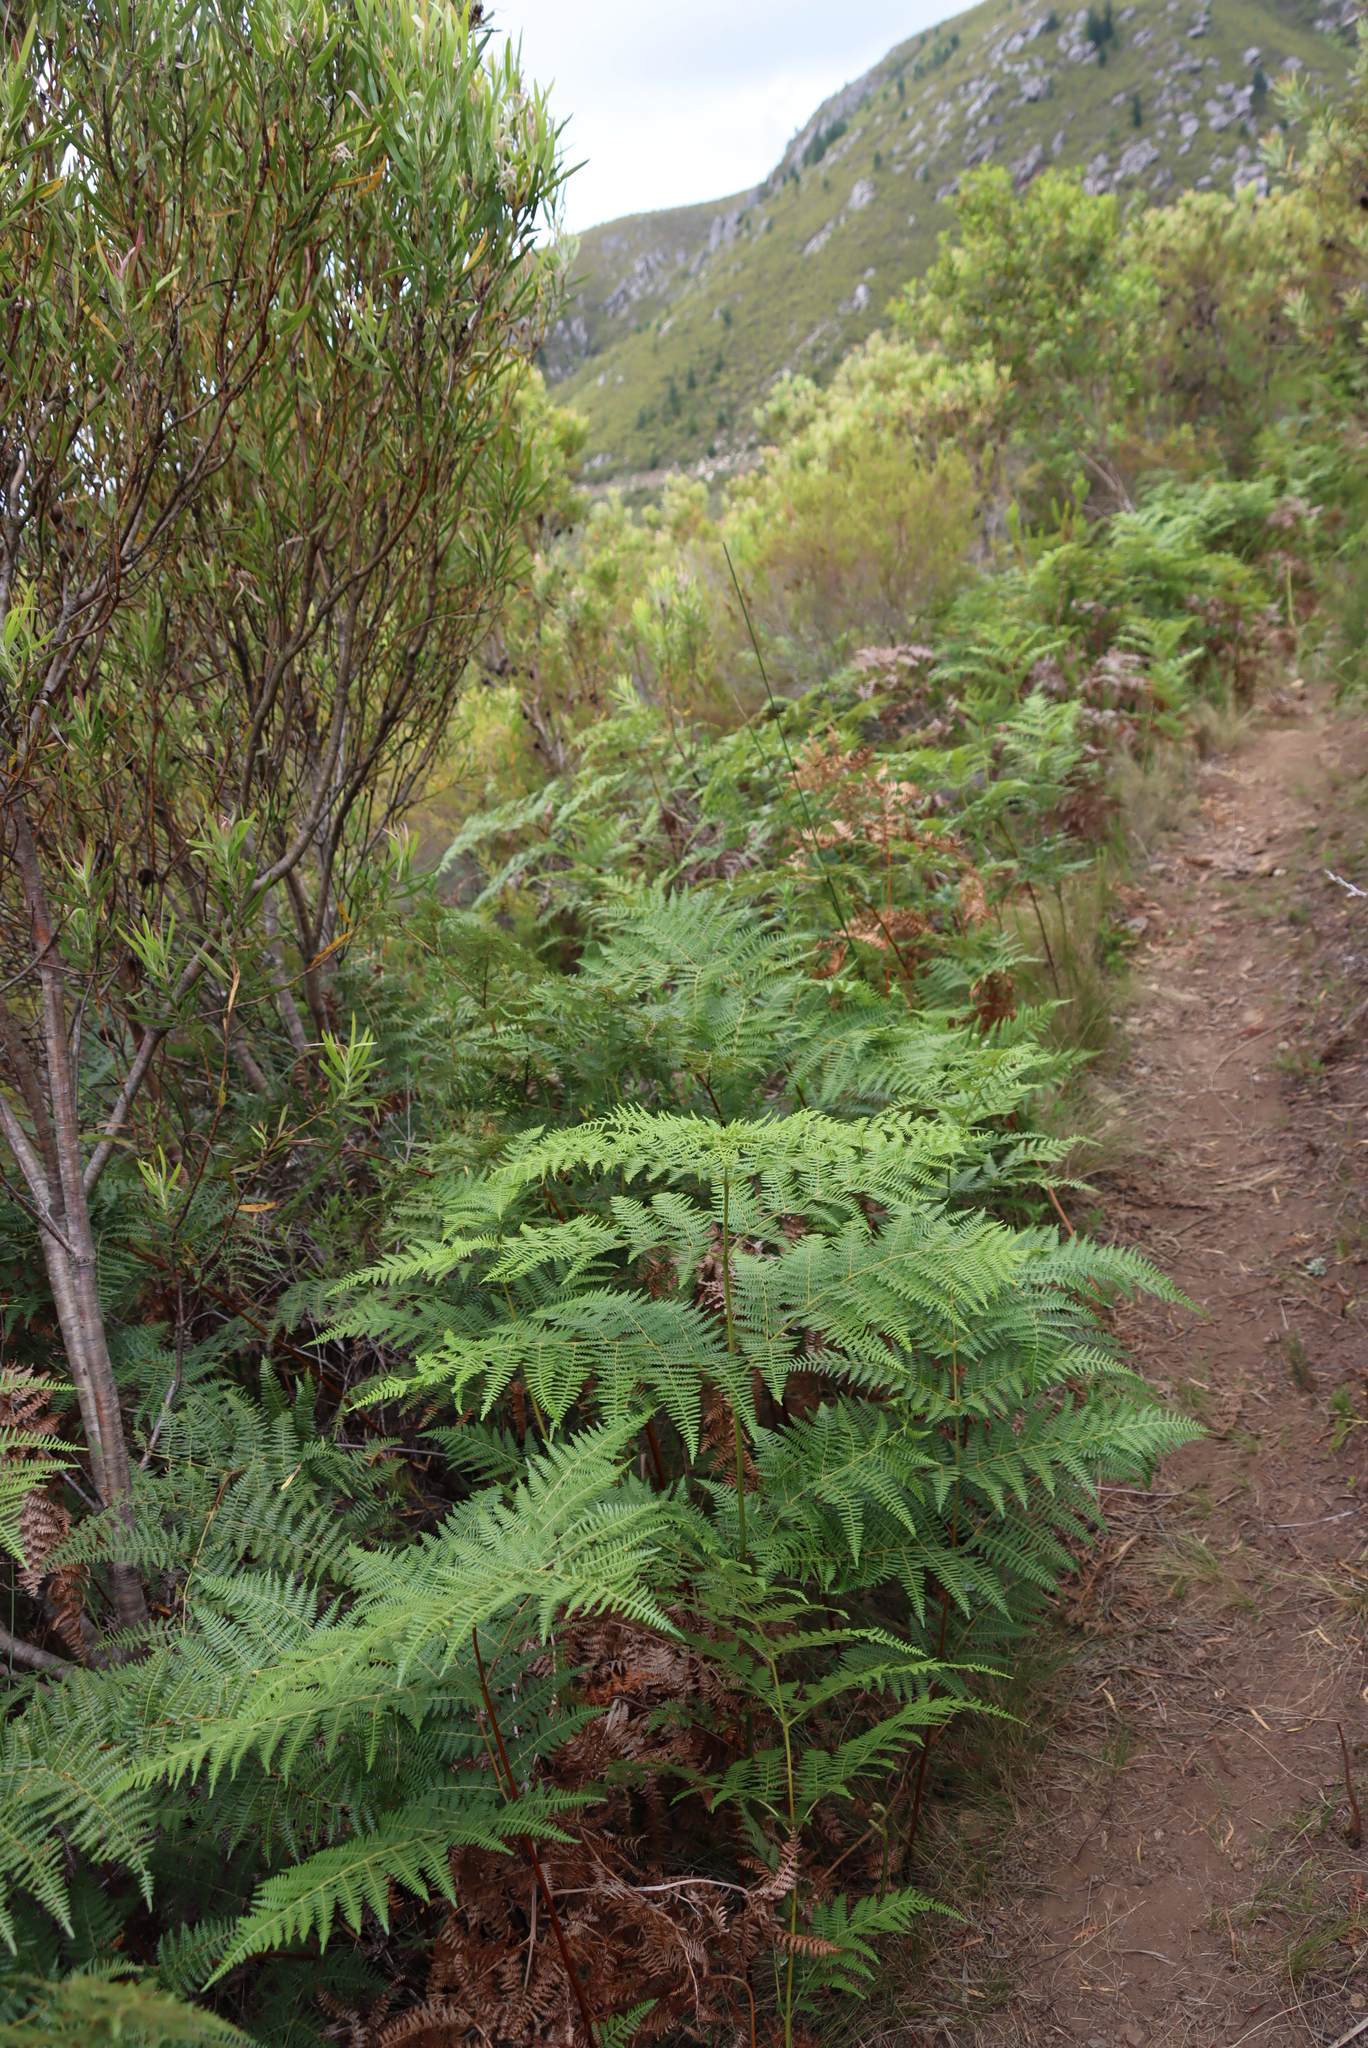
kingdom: Plantae
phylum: Tracheophyta
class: Polypodiopsida
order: Polypodiales
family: Dennstaedtiaceae
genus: Pteridium
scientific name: Pteridium aquilinum
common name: Bracken
